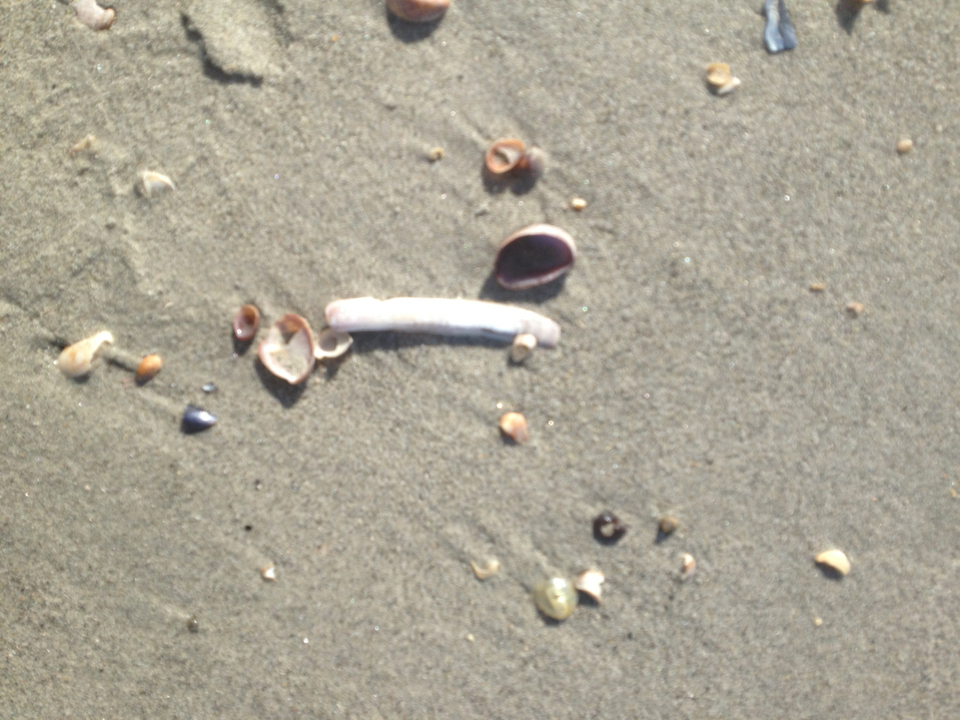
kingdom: Animalia
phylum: Mollusca
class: Bivalvia
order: Adapedonta
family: Pharidae
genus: Ensis
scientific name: Ensis leei
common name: American jack knife clam
